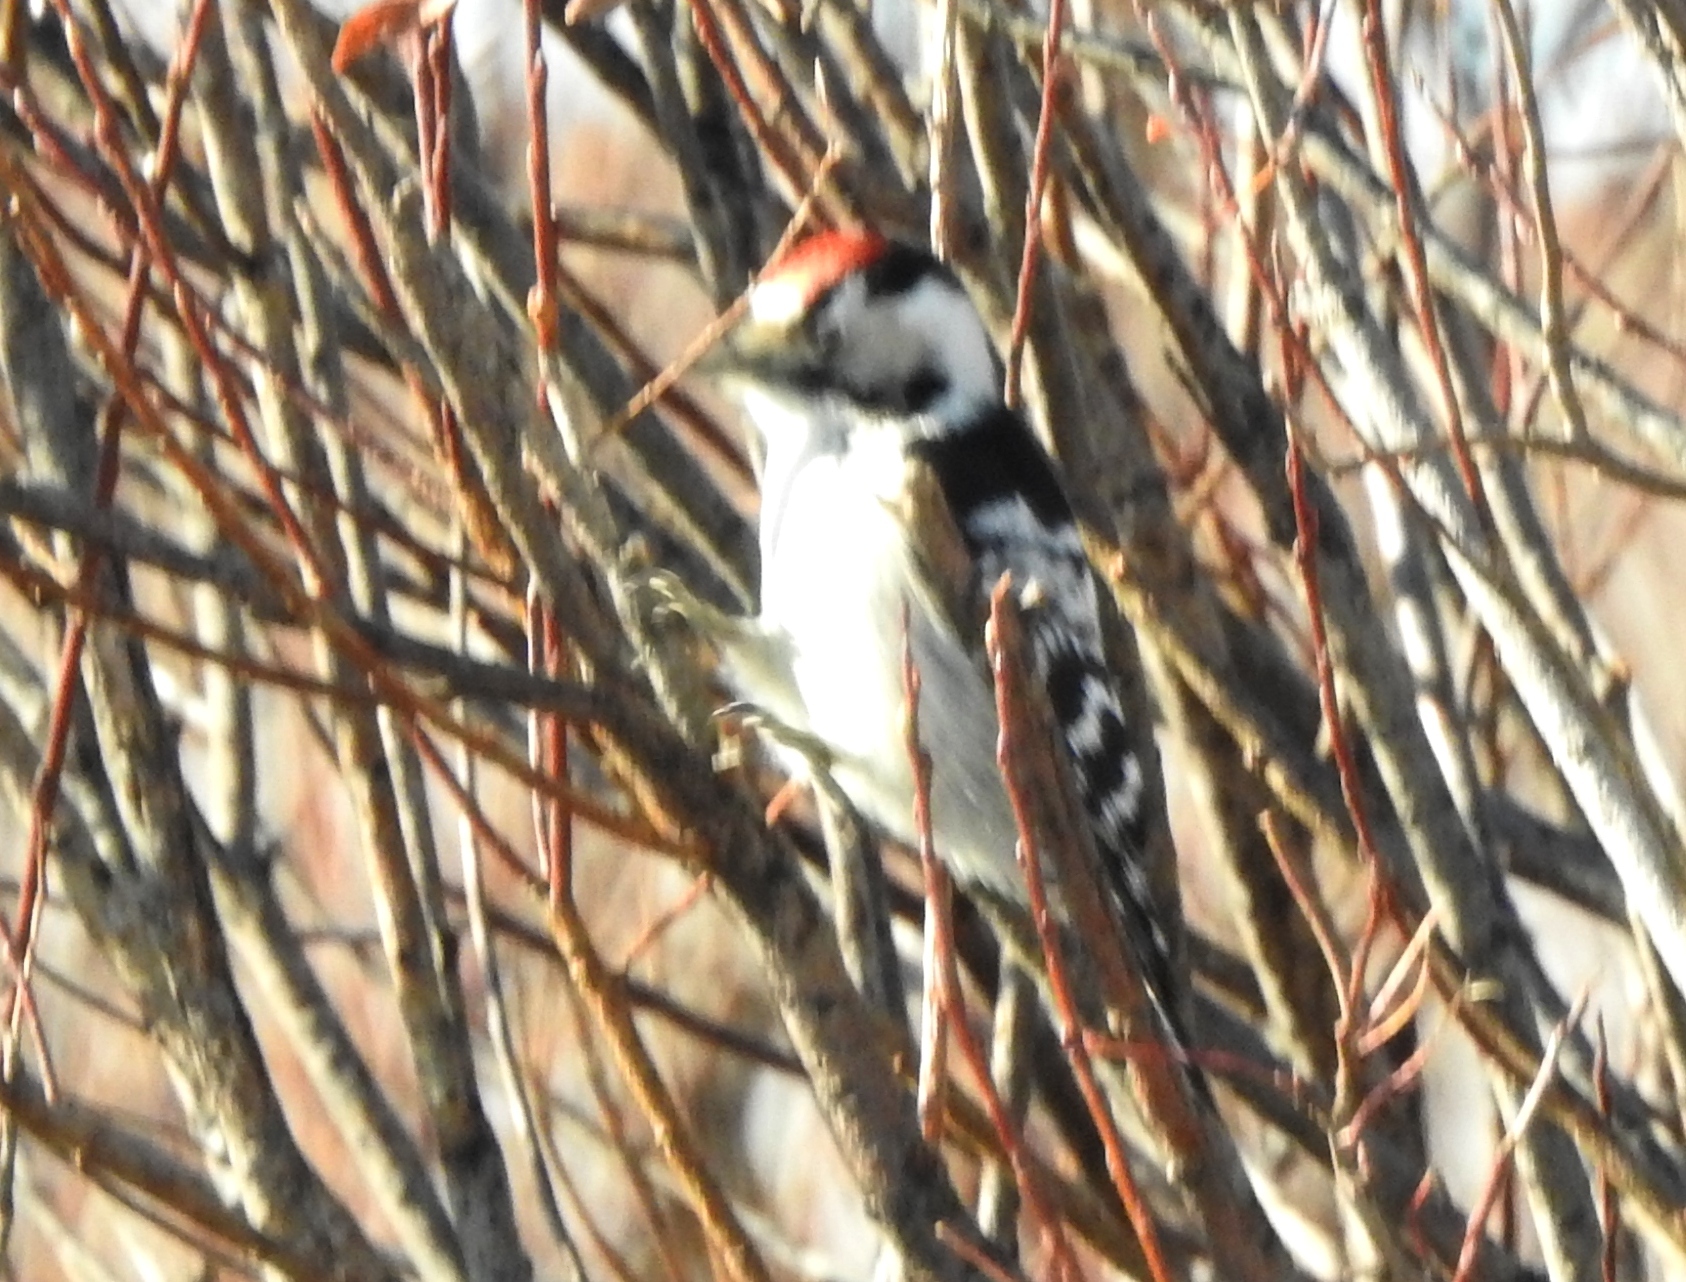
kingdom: Animalia
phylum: Chordata
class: Aves
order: Piciformes
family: Picidae
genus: Dryobates
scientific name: Dryobates minor
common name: Lesser spotted woodpecker
